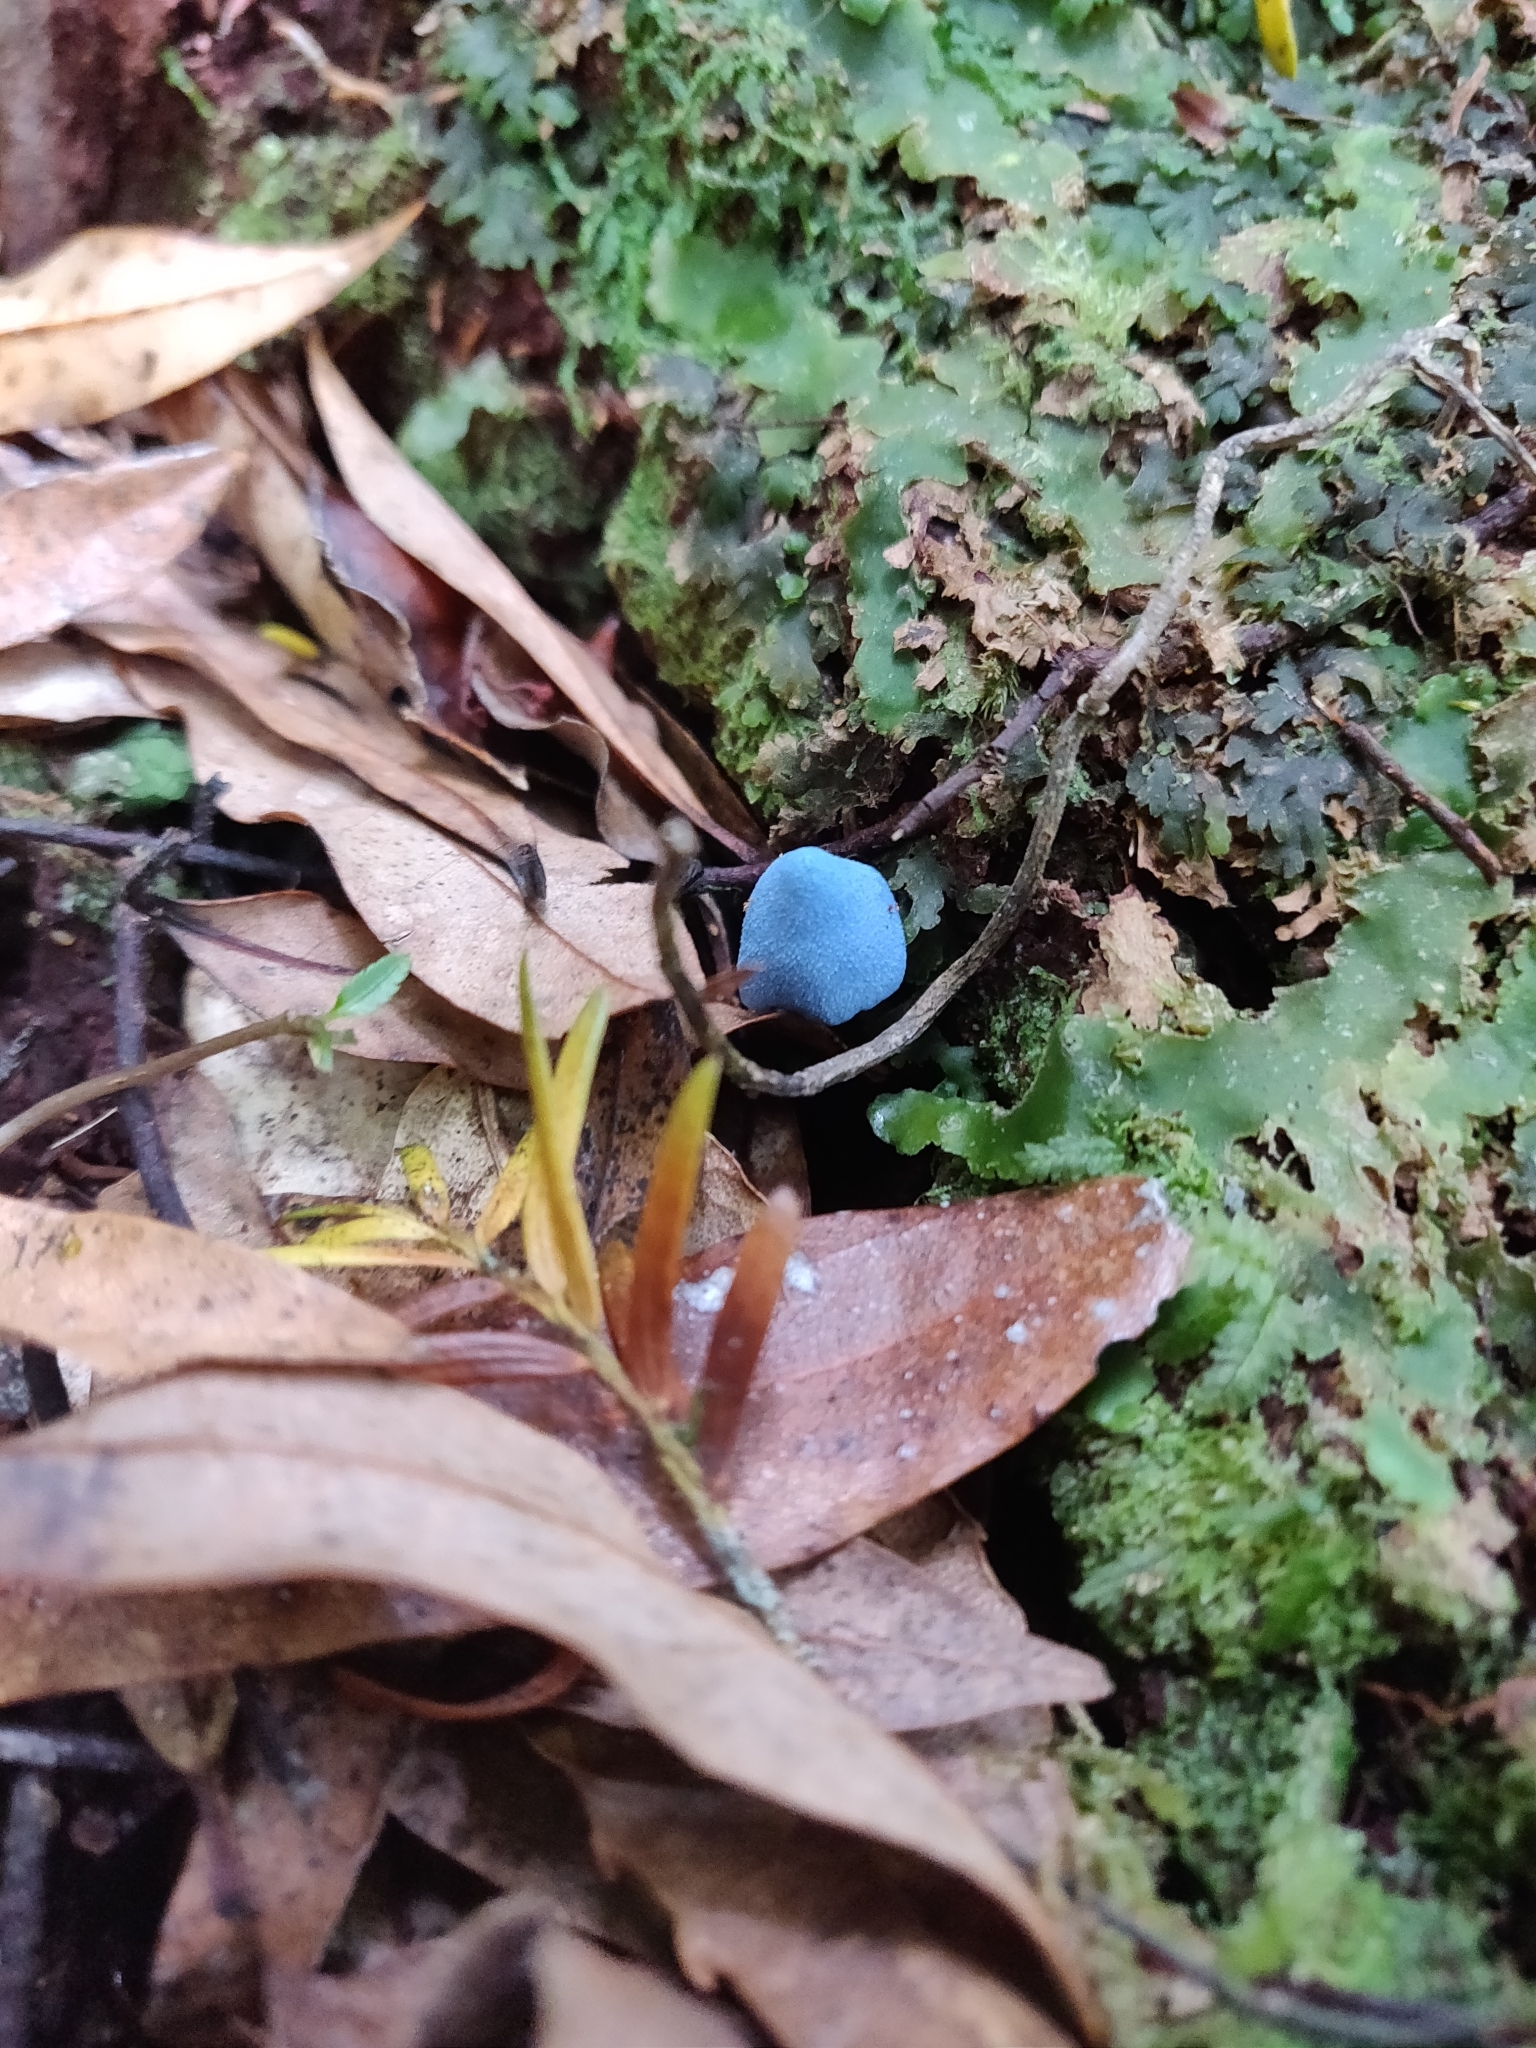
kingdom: Fungi
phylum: Basidiomycota
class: Agaricomycetes
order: Agaricales
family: Entolomataceae
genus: Entoloma
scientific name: Entoloma hochstetteri
